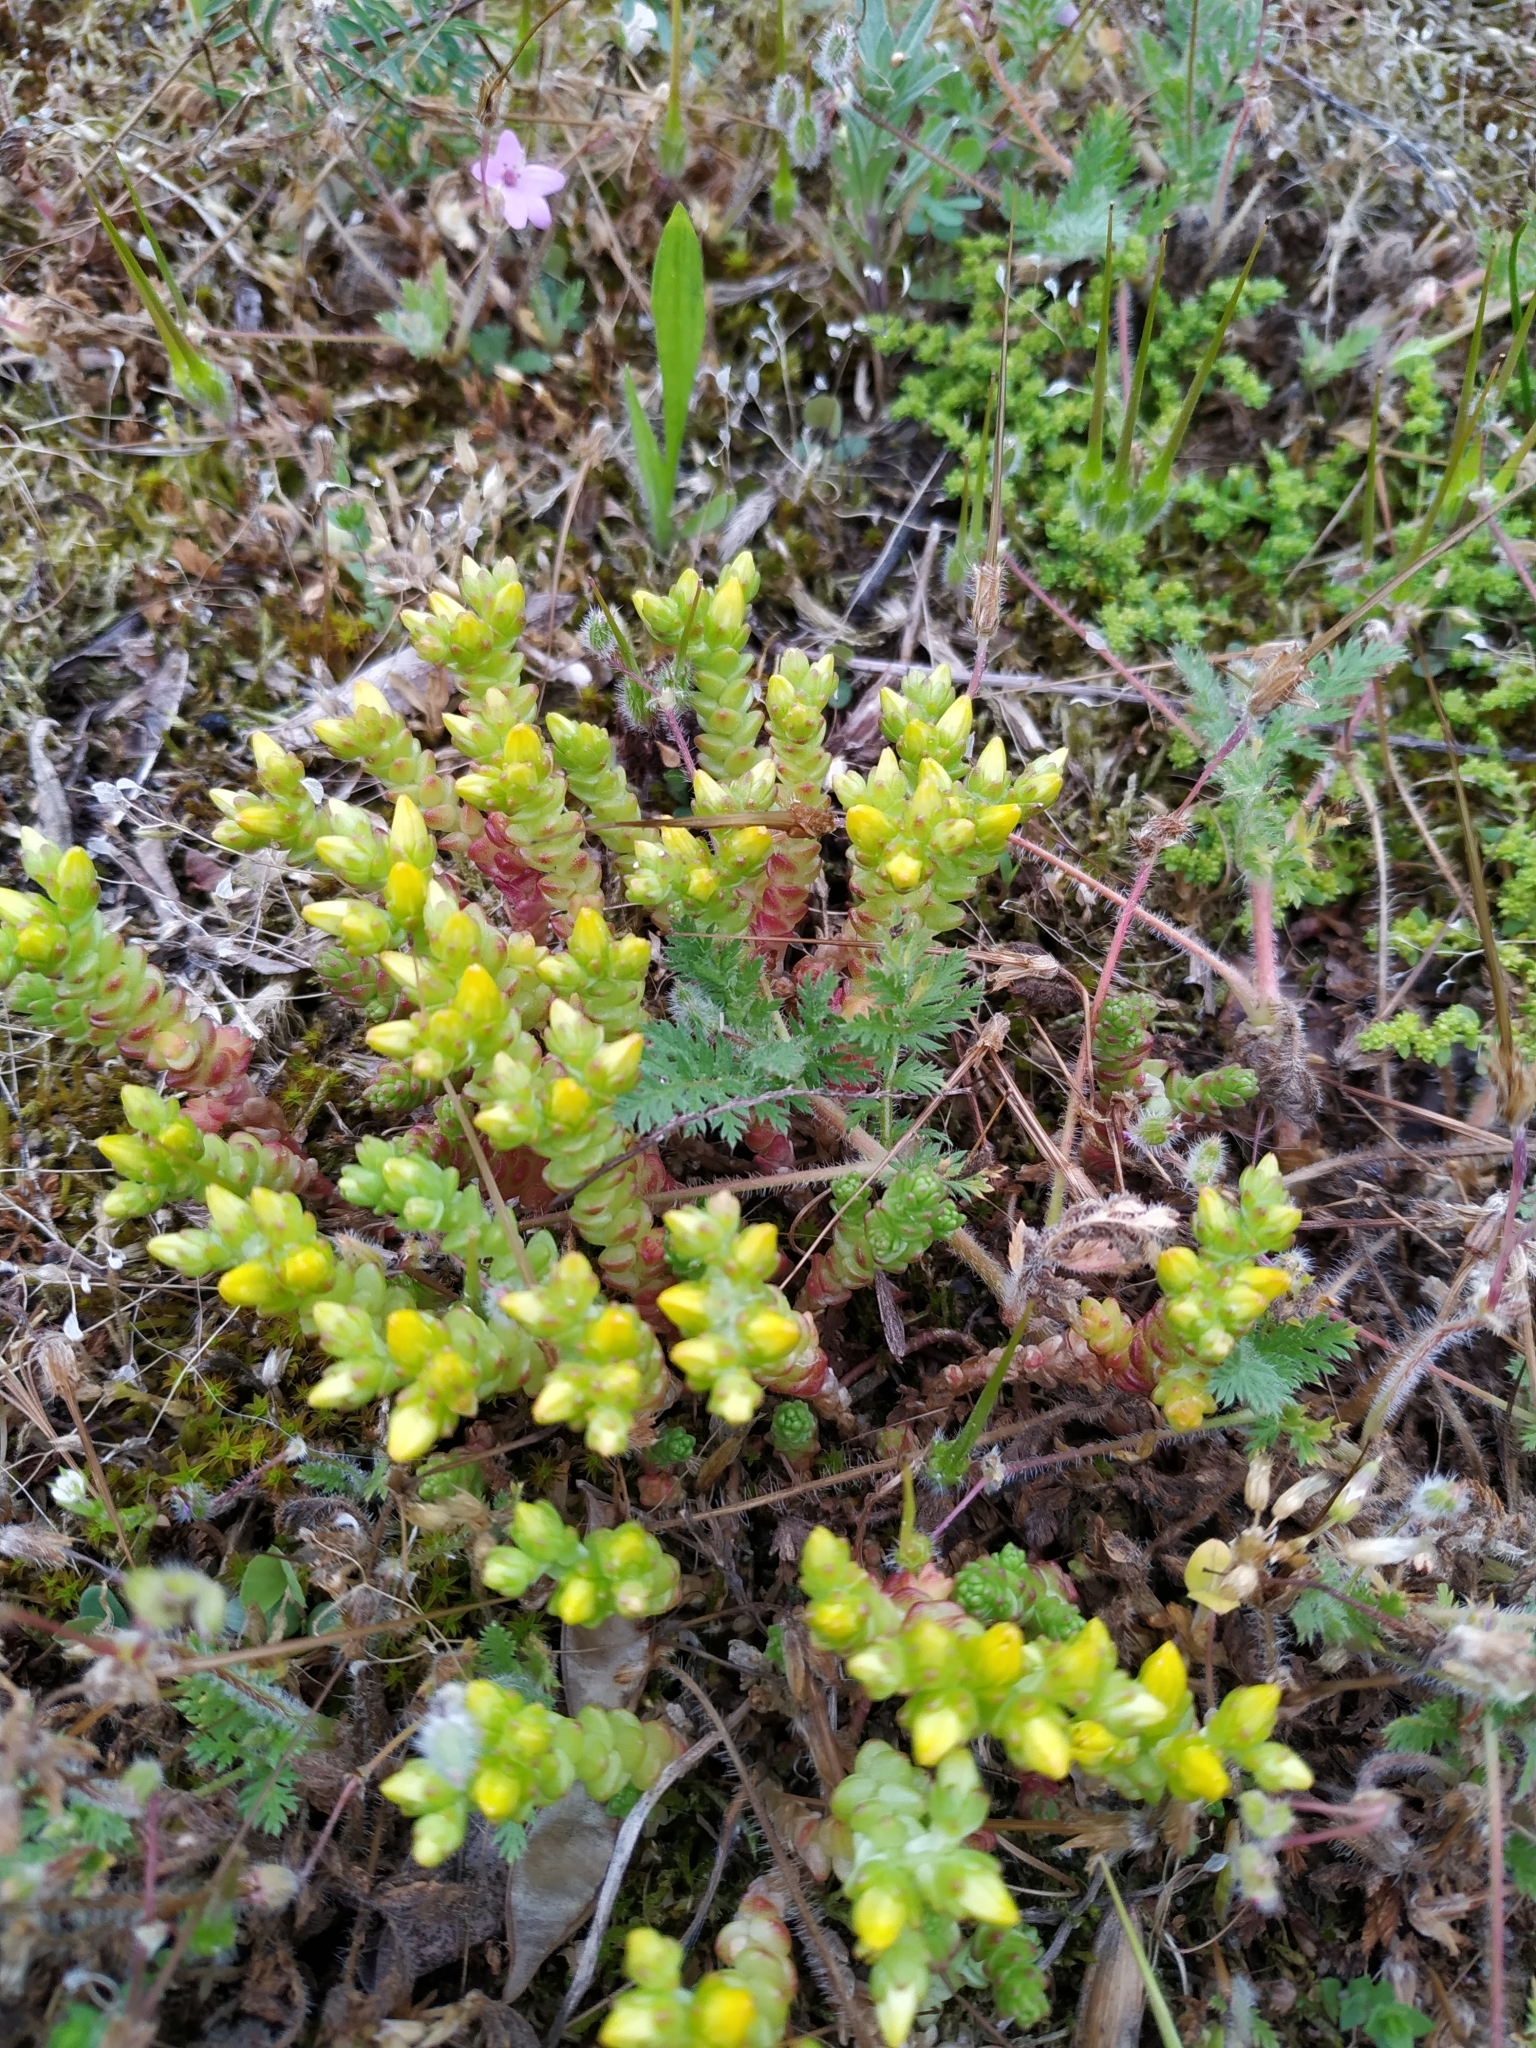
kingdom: Plantae
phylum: Tracheophyta
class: Magnoliopsida
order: Saxifragales
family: Crassulaceae
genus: Sedum
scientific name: Sedum acre
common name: Biting stonecrop
